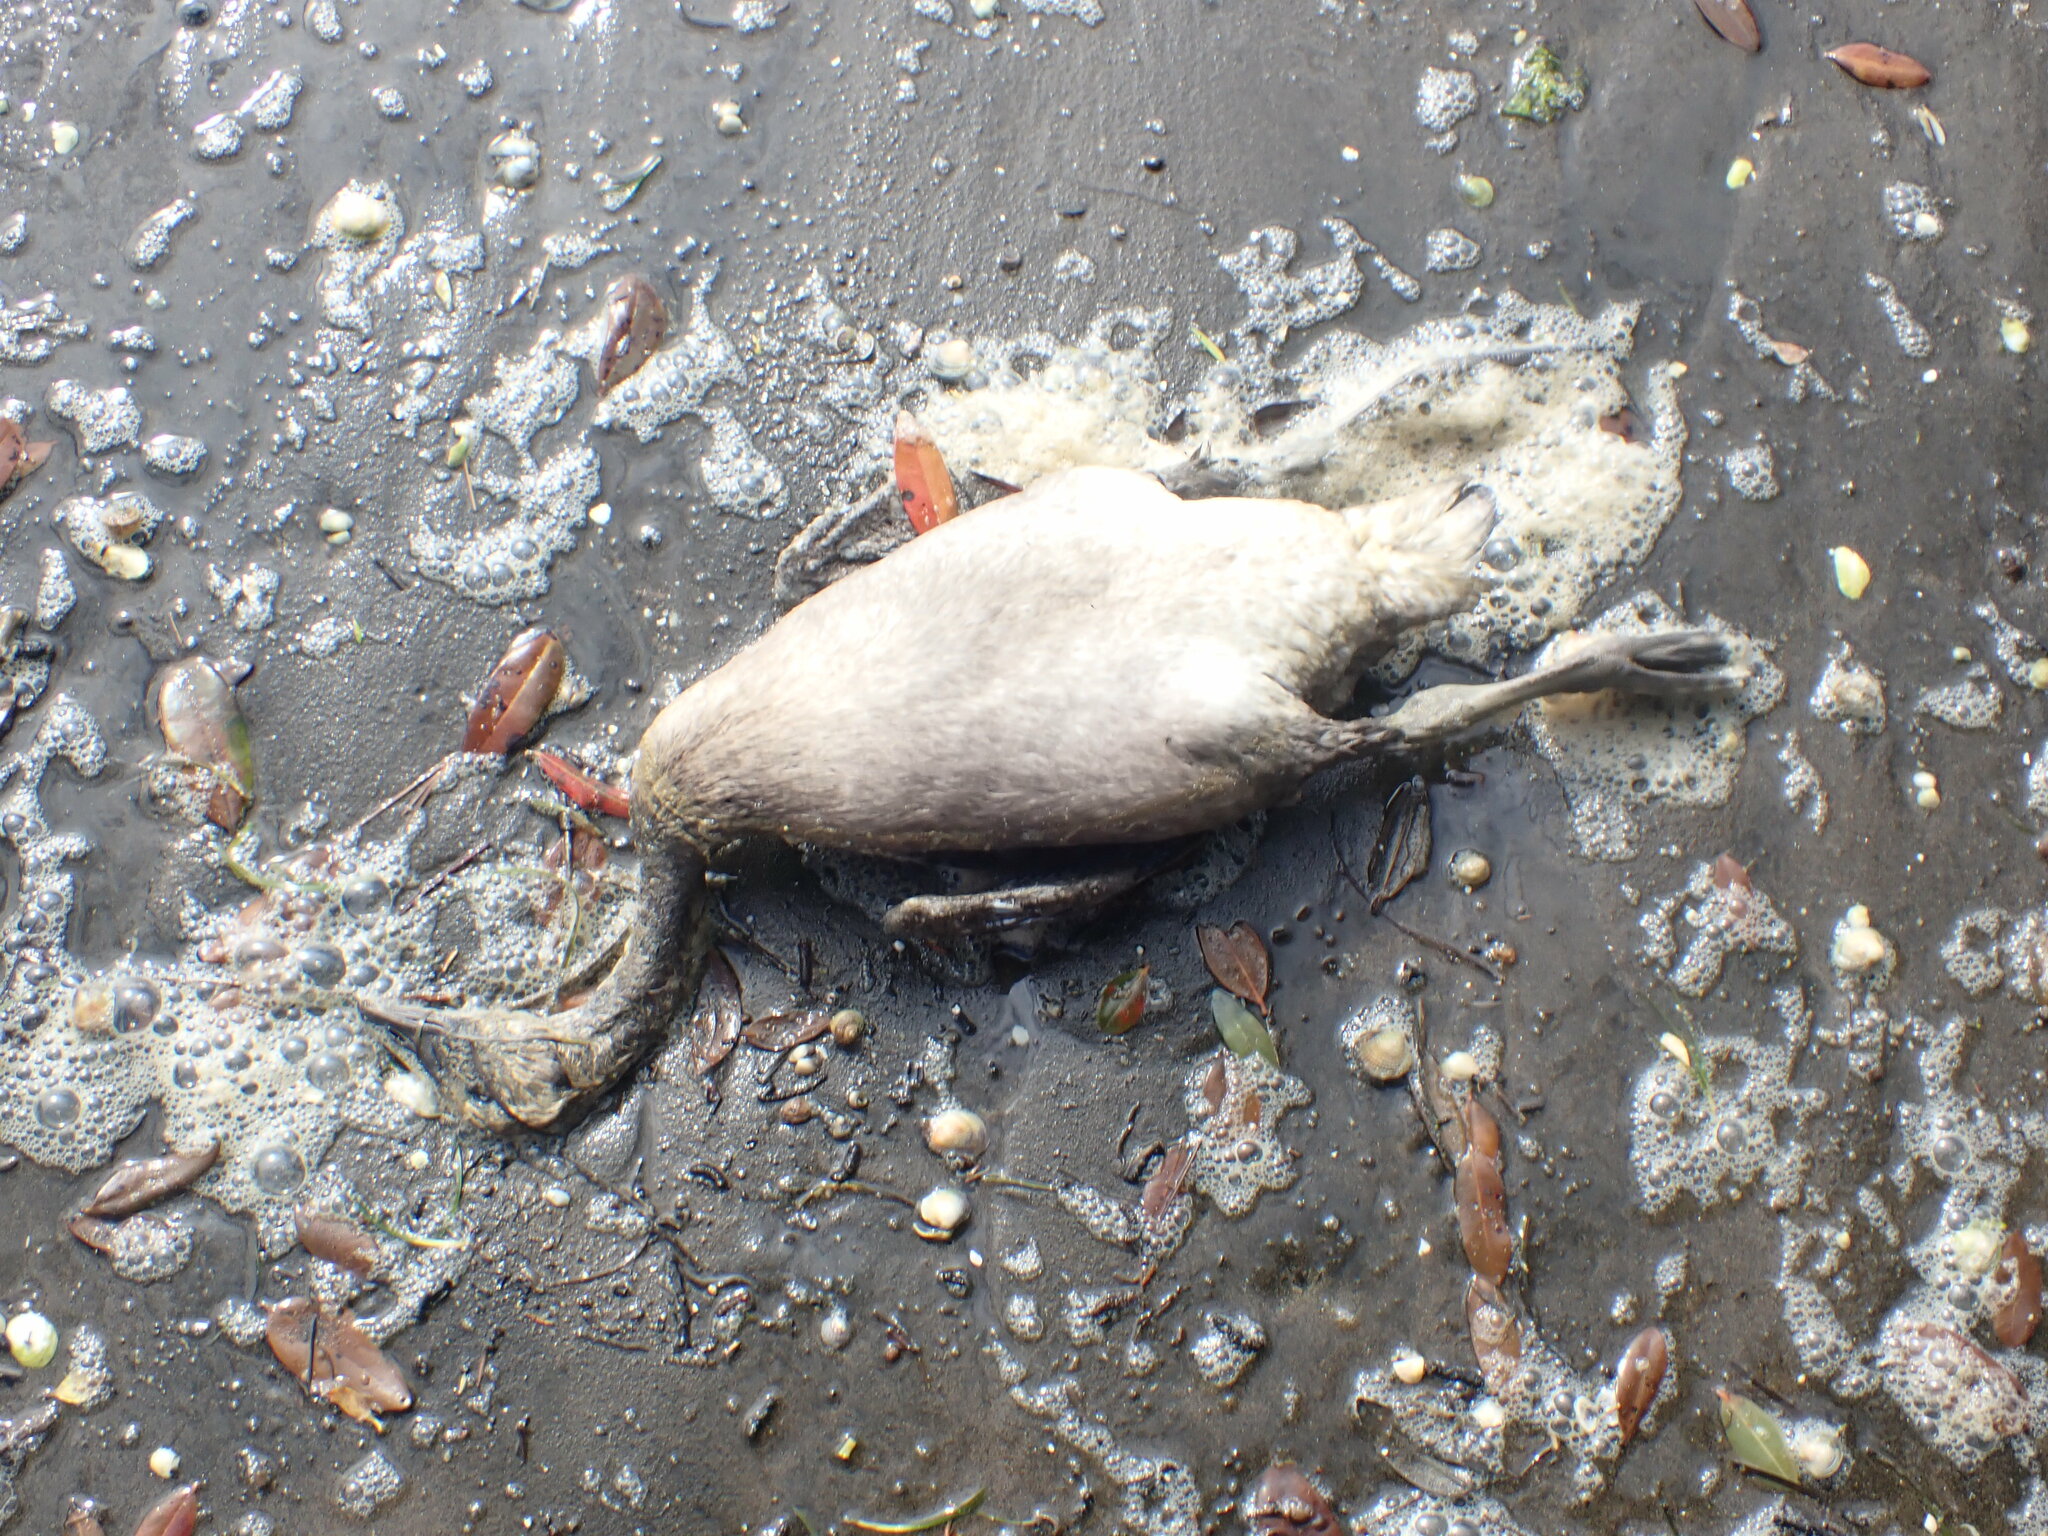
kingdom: Animalia
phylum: Chordata
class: Aves
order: Anseriformes
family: Anatidae
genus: Branta
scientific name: Branta canadensis
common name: Canada goose
